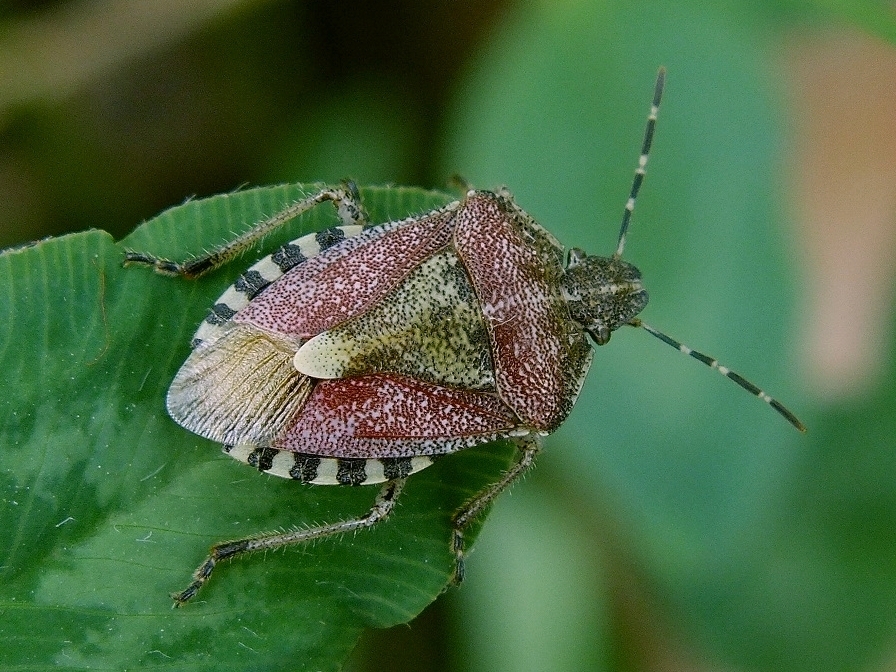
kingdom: Animalia
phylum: Arthropoda
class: Insecta
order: Hemiptera
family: Pentatomidae
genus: Dolycoris
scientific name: Dolycoris baccarum
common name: Sloe bug
